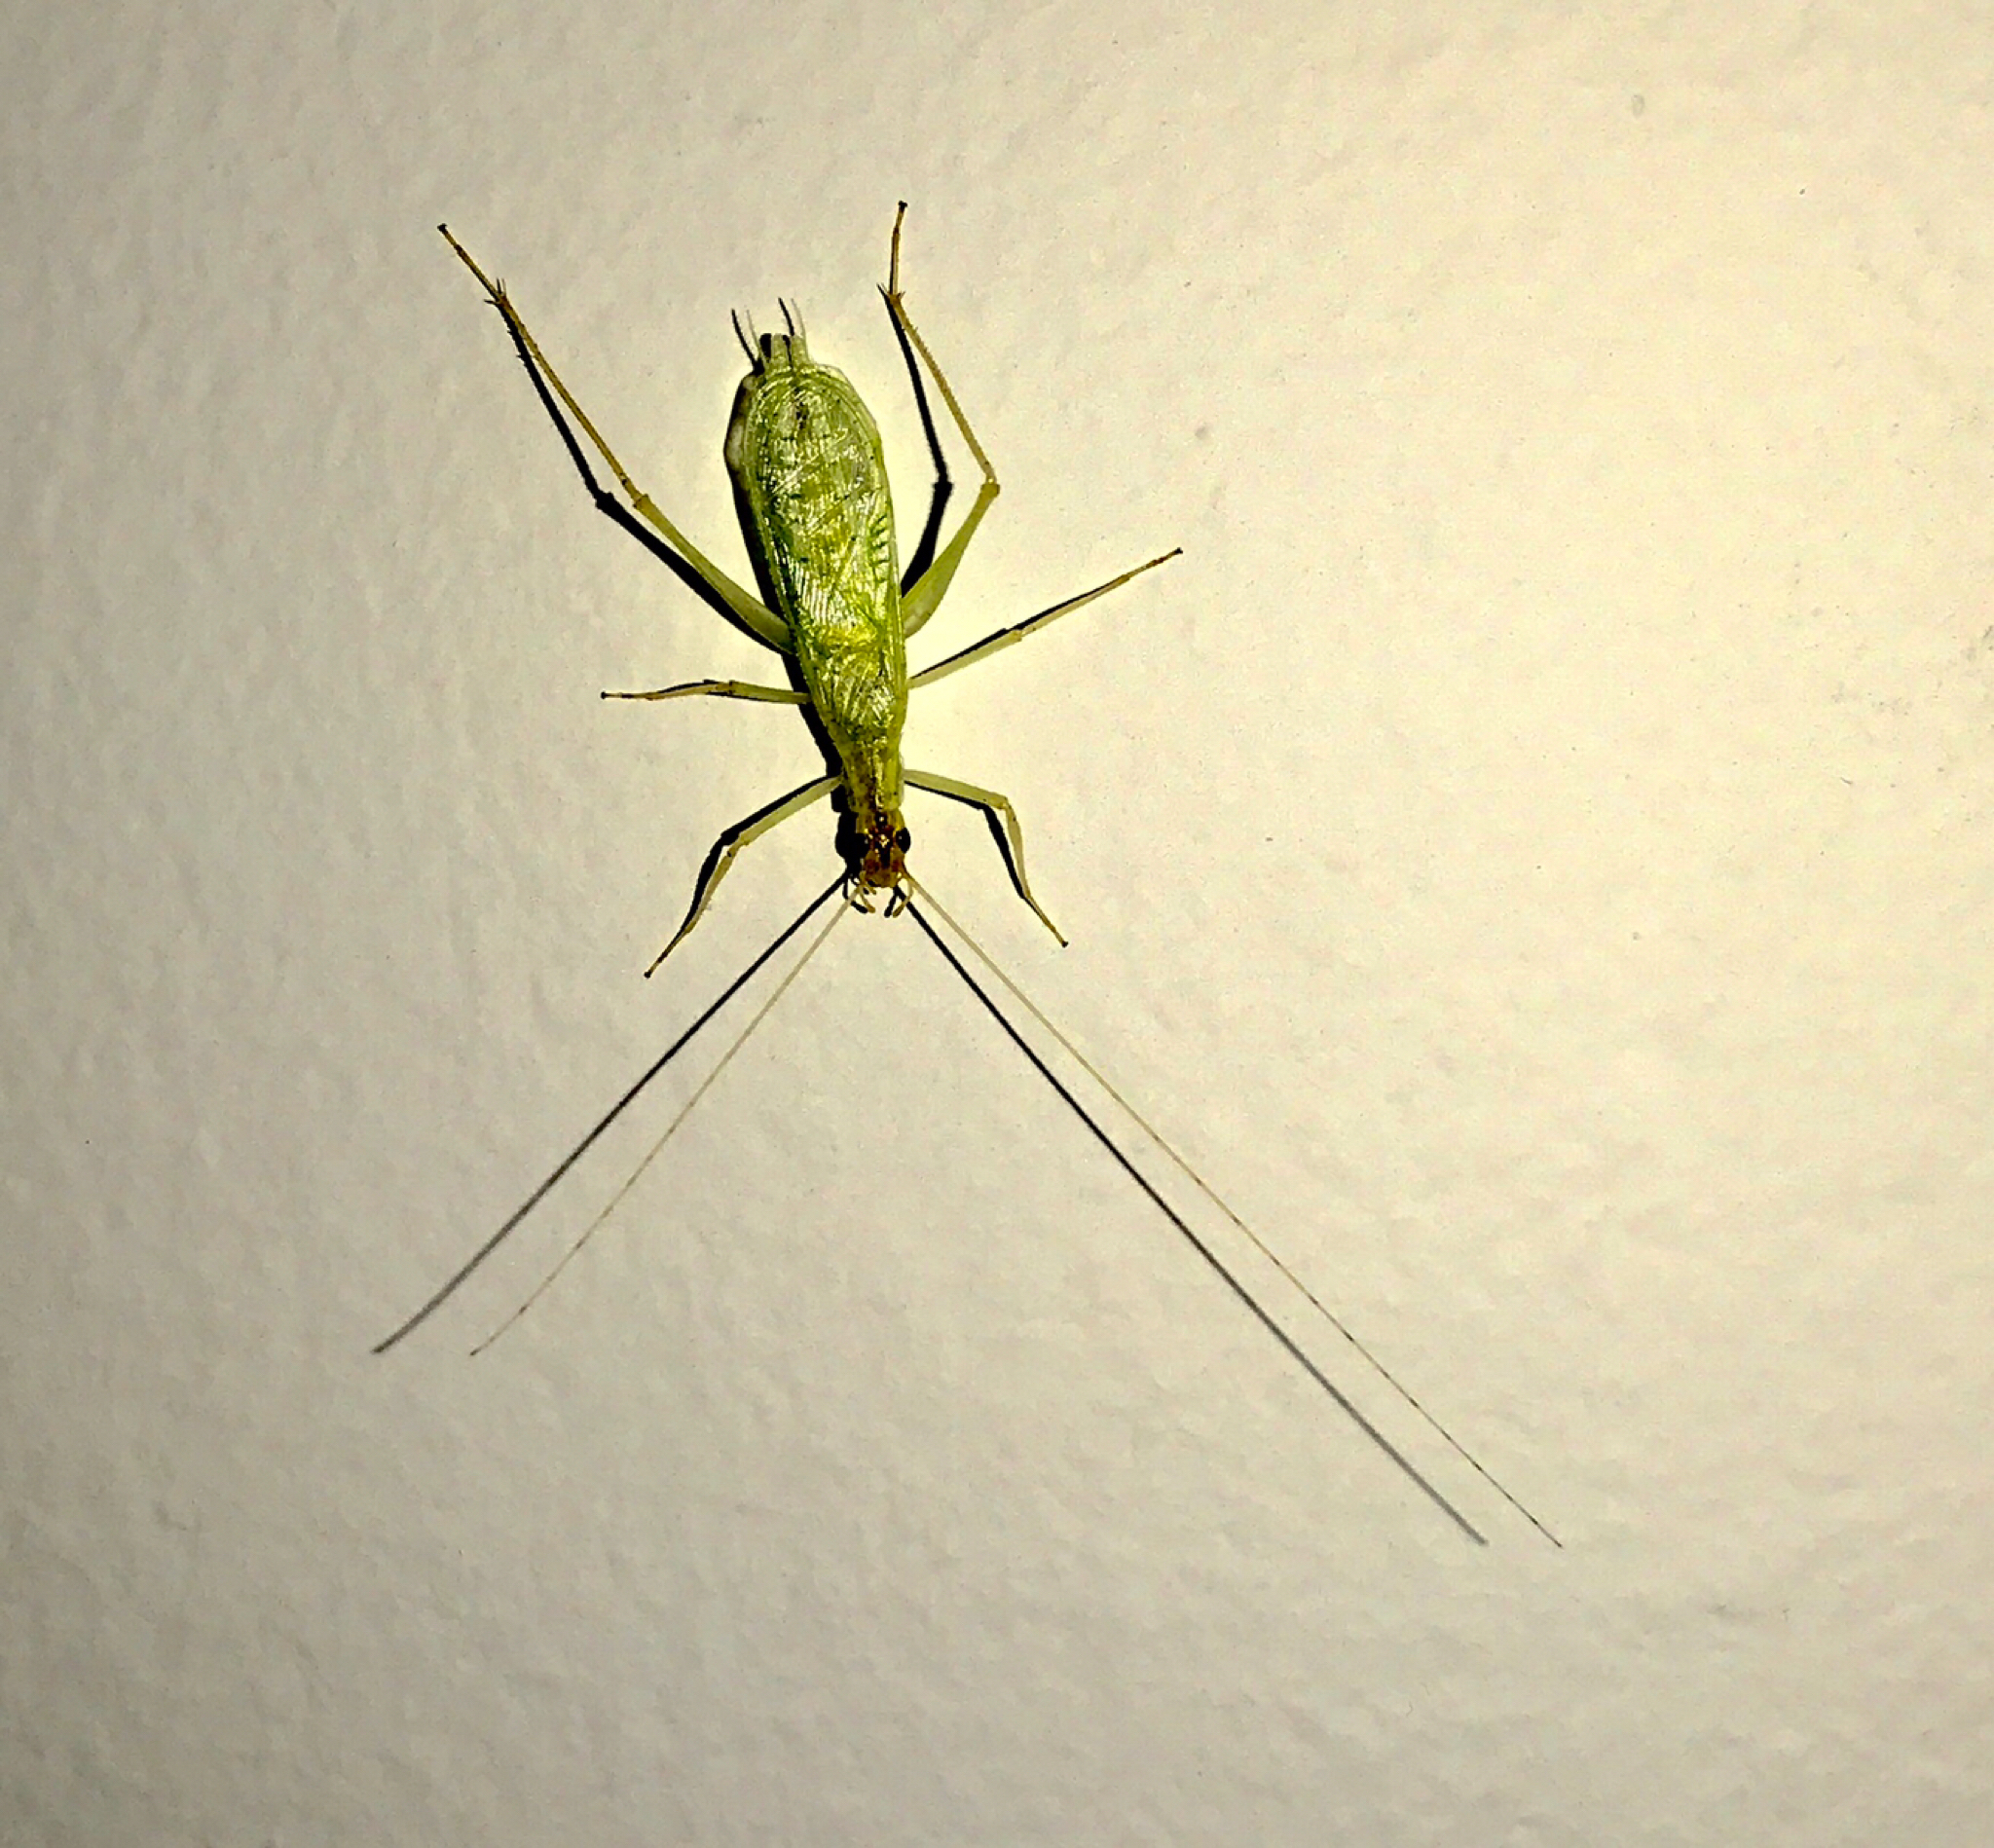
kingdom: Animalia
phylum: Arthropoda
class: Insecta
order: Orthoptera
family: Gryllidae
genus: Oecanthus
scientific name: Oecanthus niveus
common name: Narrow-winged tree cricket
